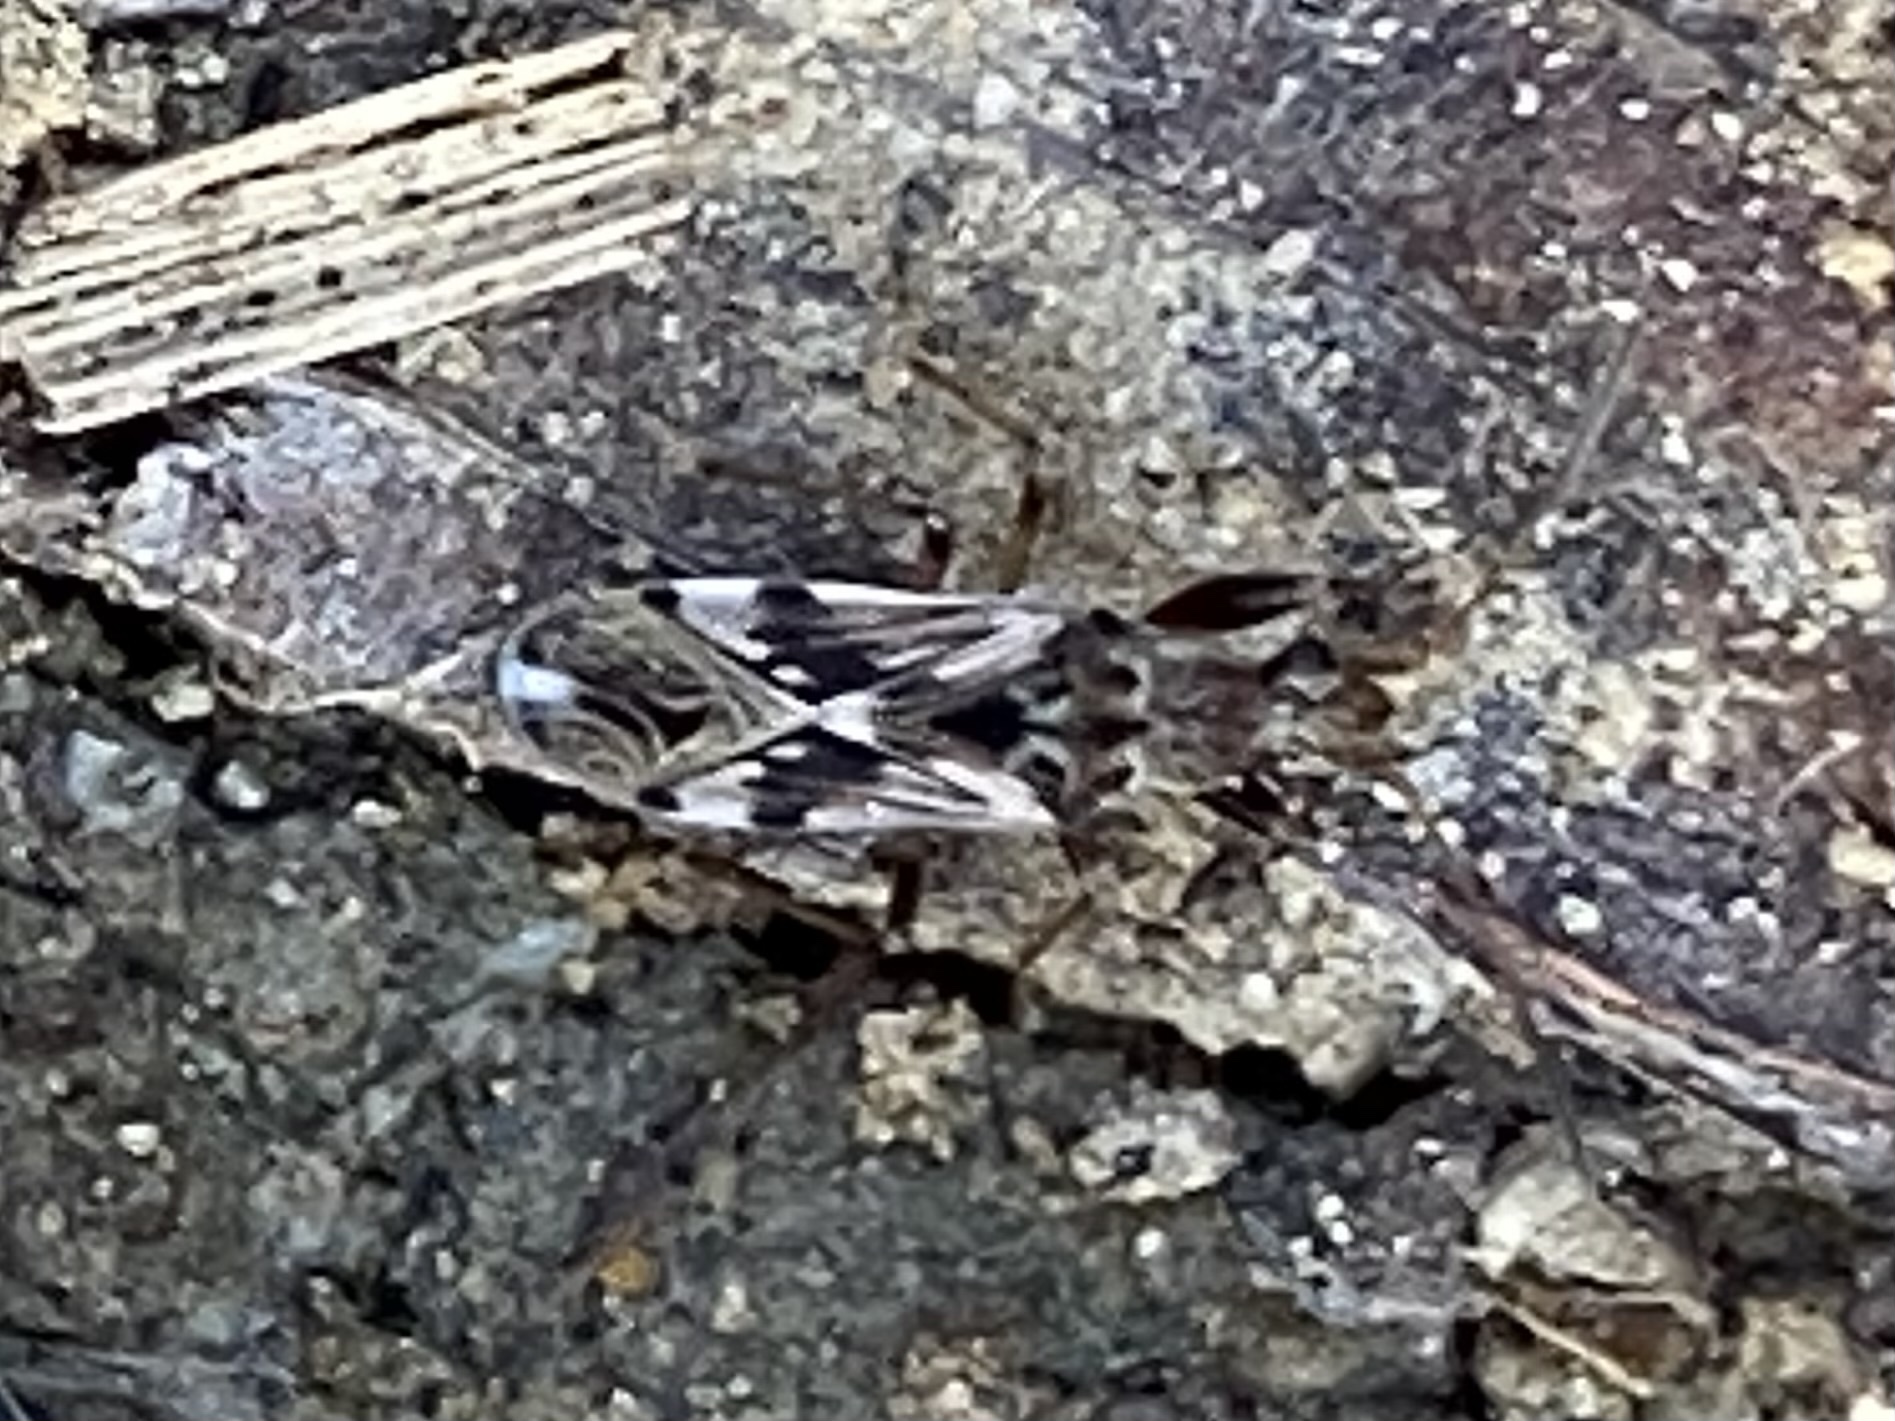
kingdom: Animalia
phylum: Arthropoda
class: Insecta
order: Hemiptera
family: Rhyparochromidae
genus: Neopamera
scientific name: Neopamera bilobata
